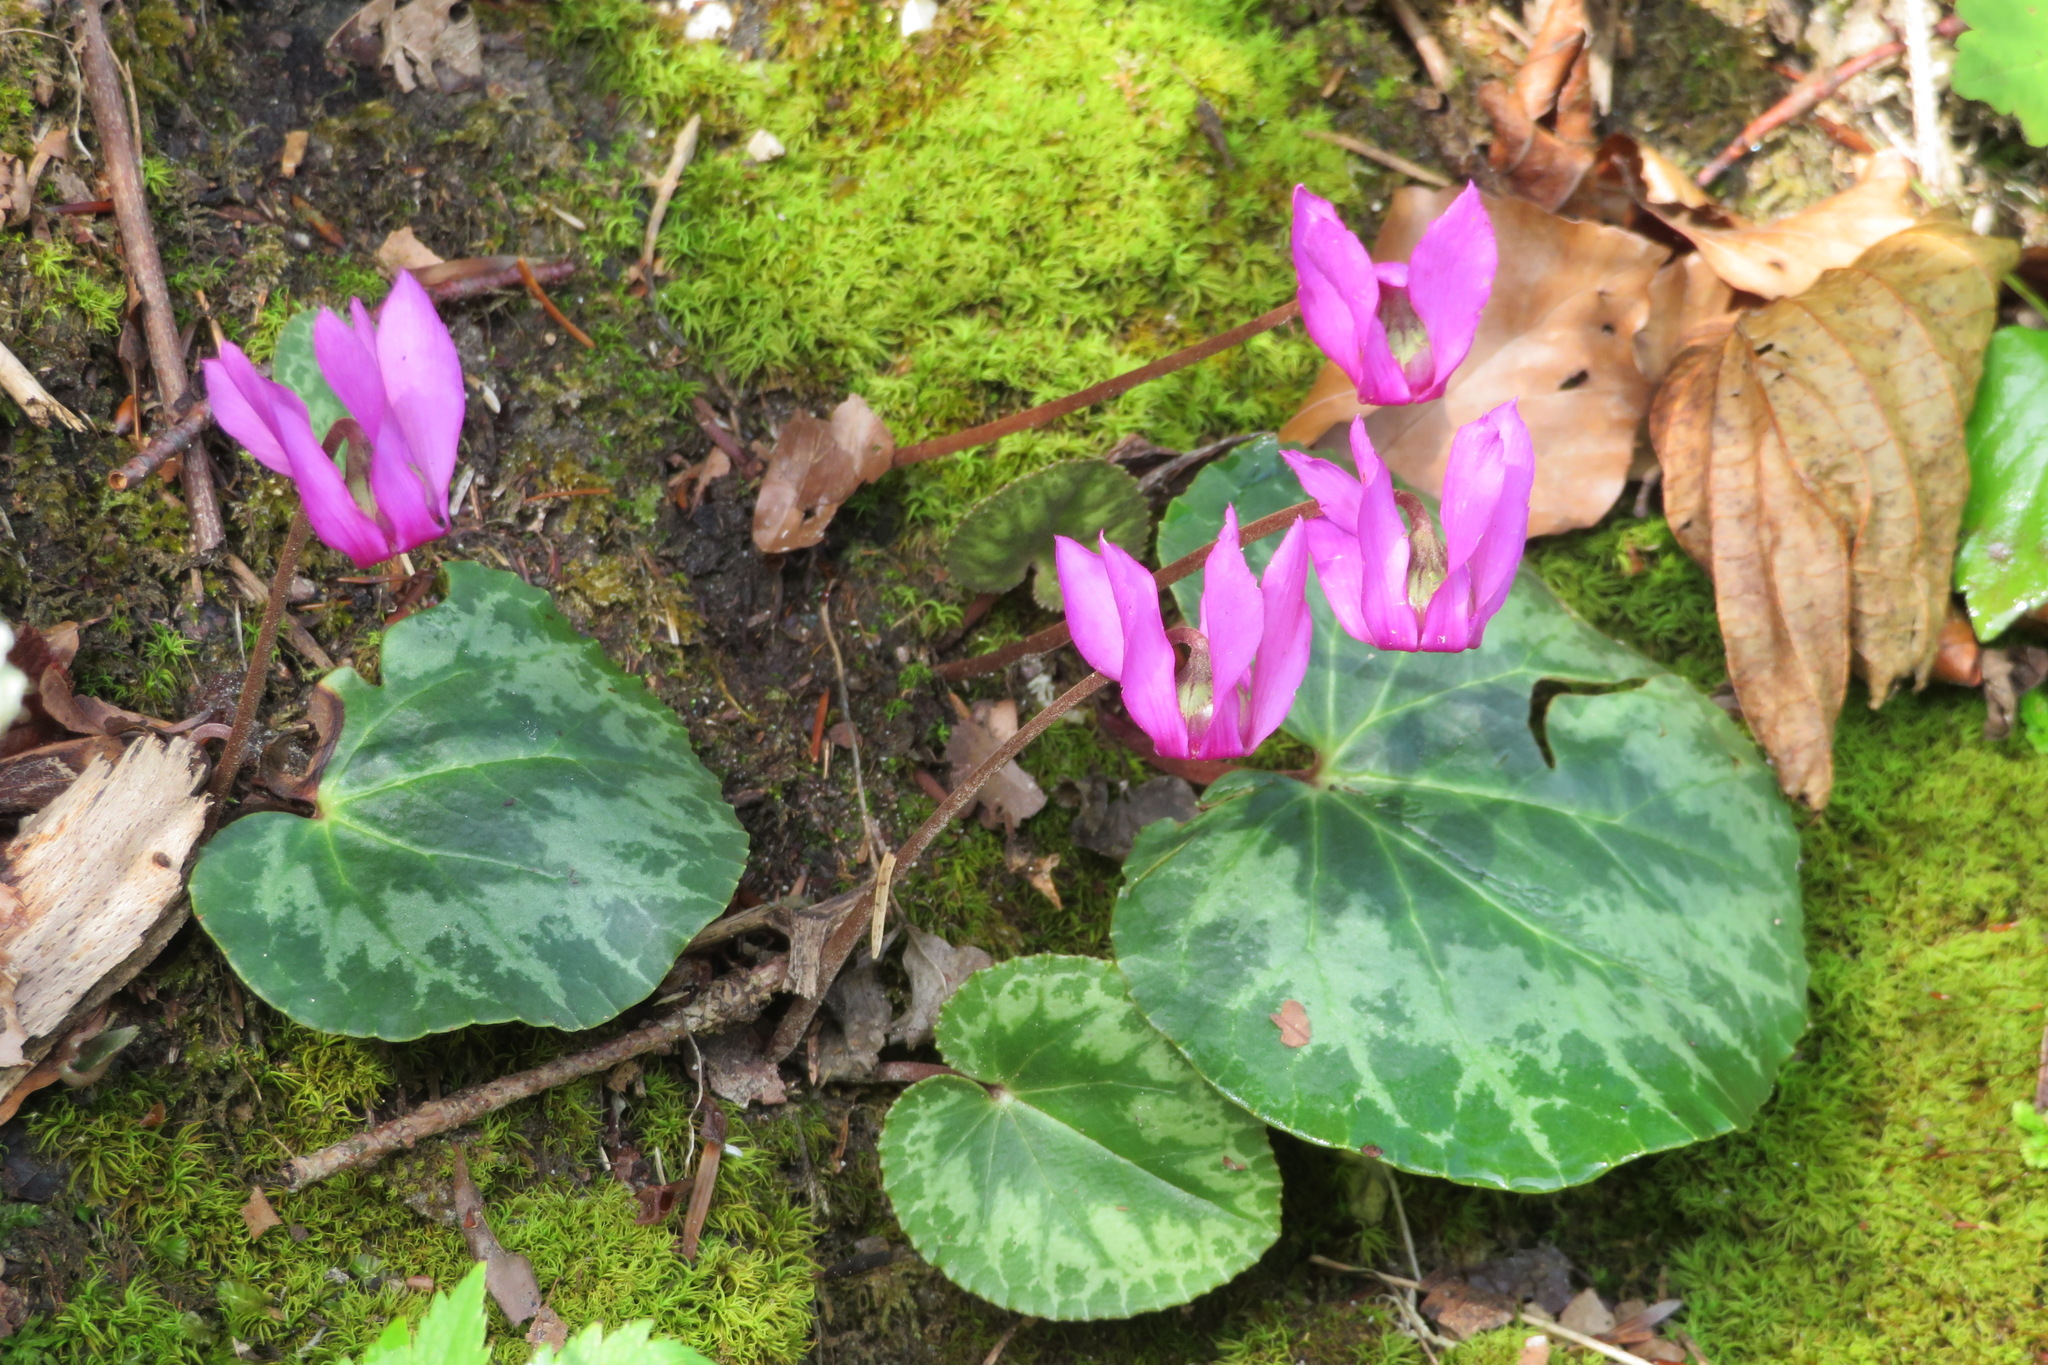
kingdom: Plantae
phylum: Tracheophyta
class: Magnoliopsida
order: Ericales
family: Primulaceae
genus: Cyclamen
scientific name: Cyclamen purpurascens
